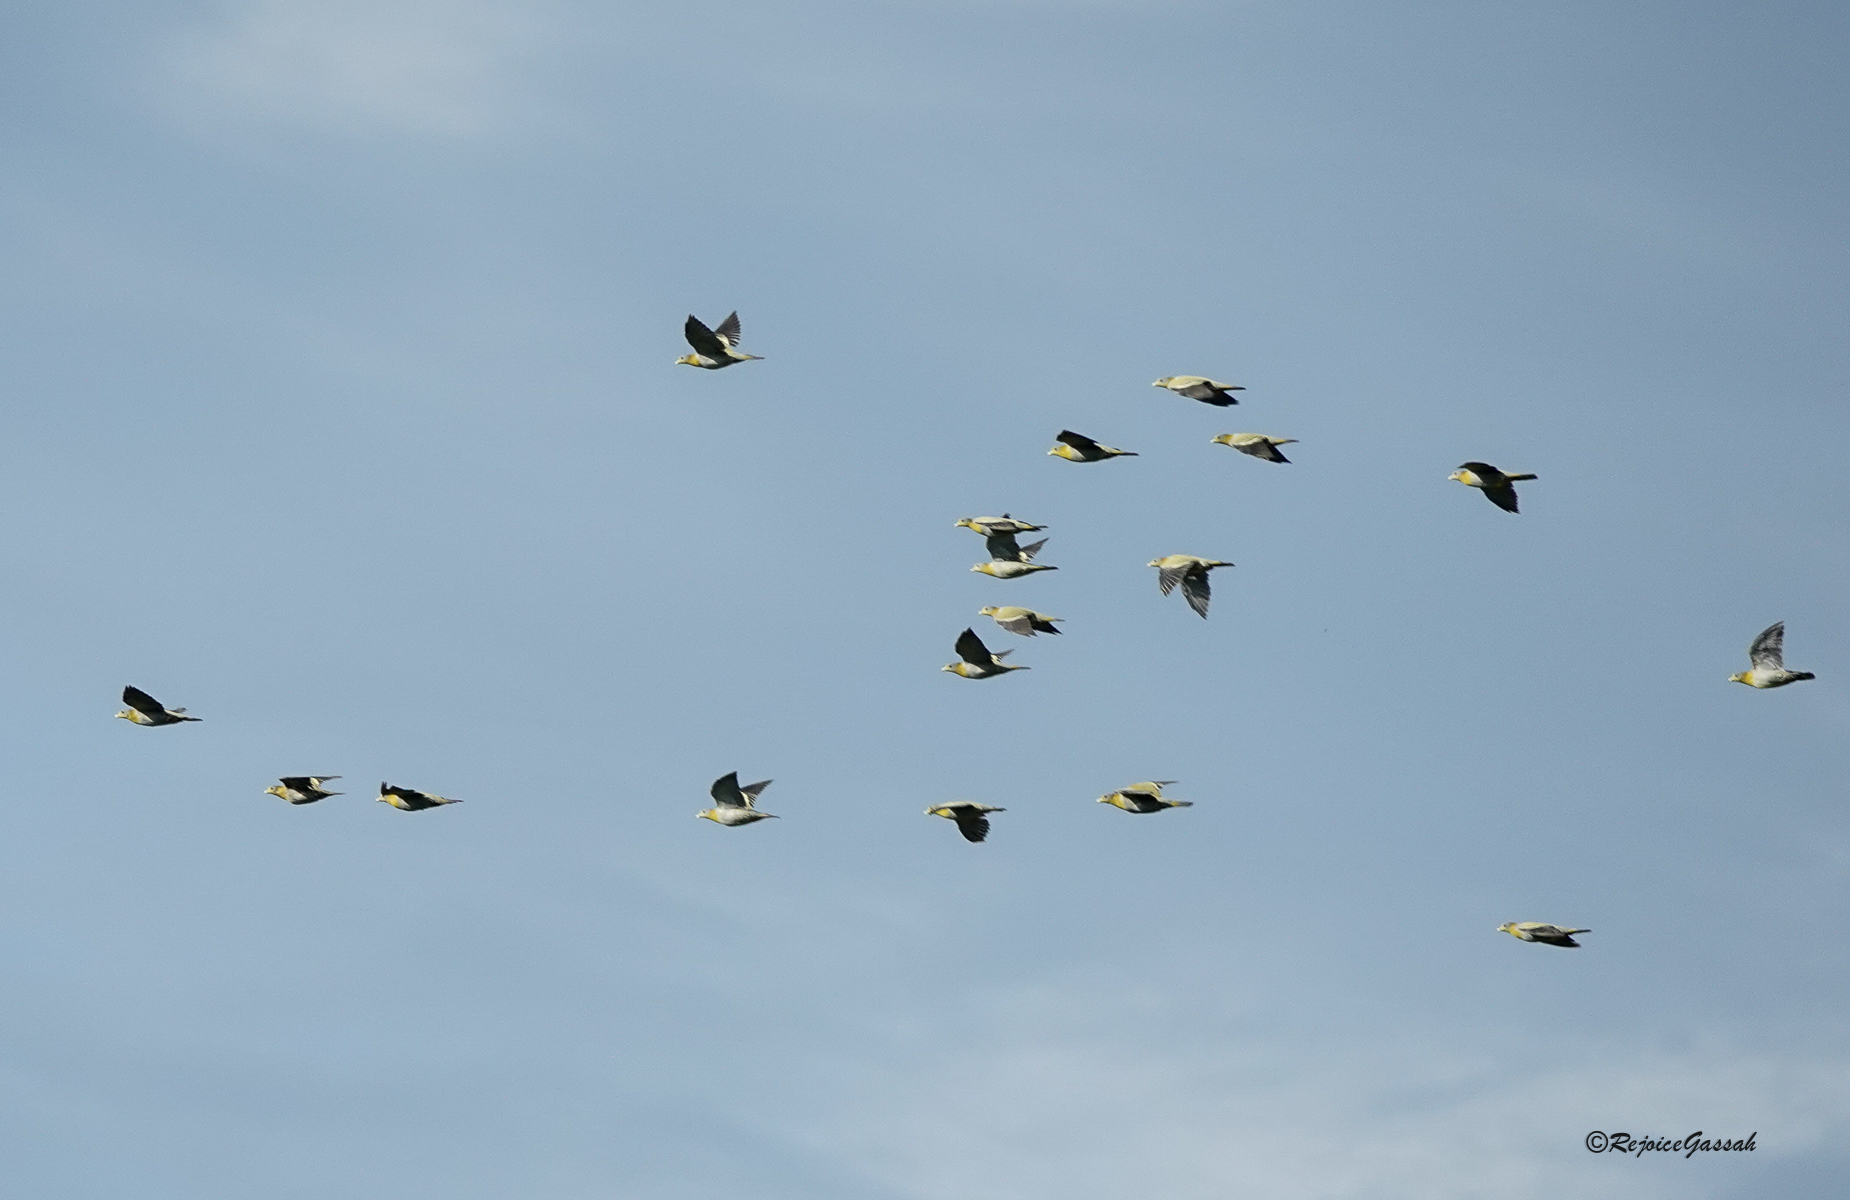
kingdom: Animalia
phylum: Chordata
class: Aves
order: Columbiformes
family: Columbidae
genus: Treron
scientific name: Treron phoenicopterus
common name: Yellow-footed green pigeon
